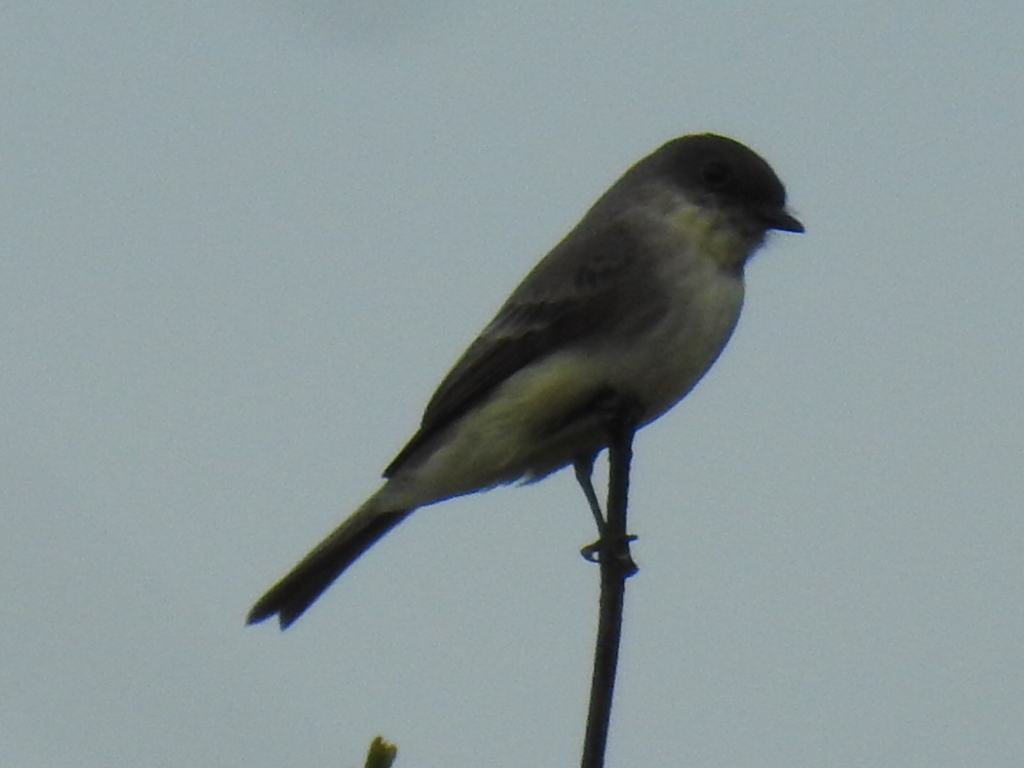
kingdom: Animalia
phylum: Chordata
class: Aves
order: Passeriformes
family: Tyrannidae
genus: Sayornis
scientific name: Sayornis phoebe
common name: Eastern phoebe
